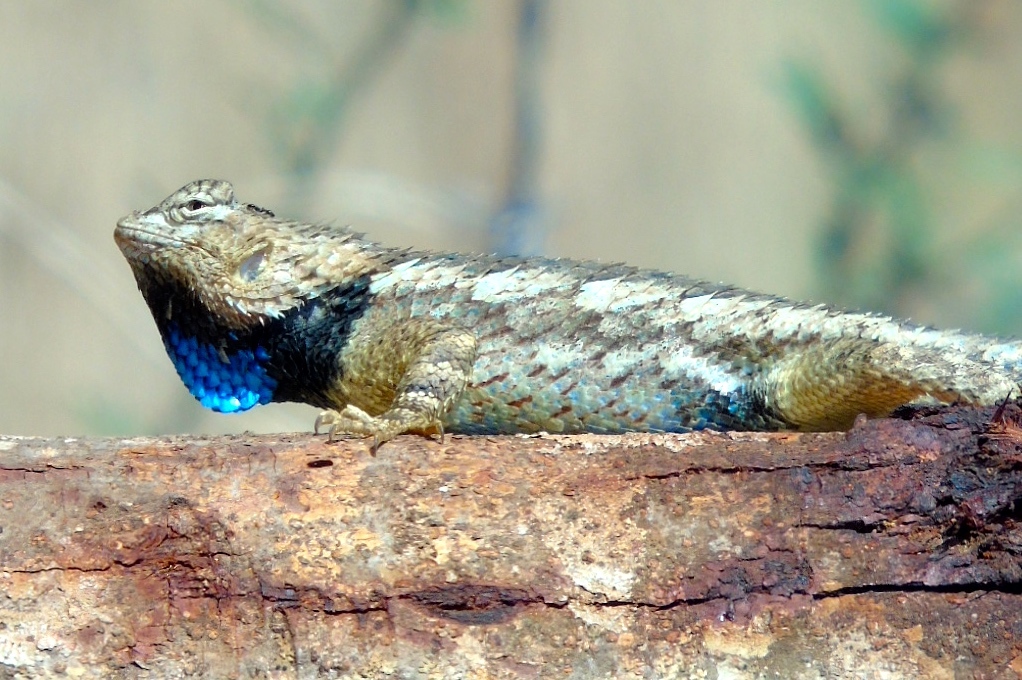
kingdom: Animalia
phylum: Chordata
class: Squamata
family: Phrynosomatidae
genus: Sceloporus
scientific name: Sceloporus clarkii
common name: Clark's spiny lizard
